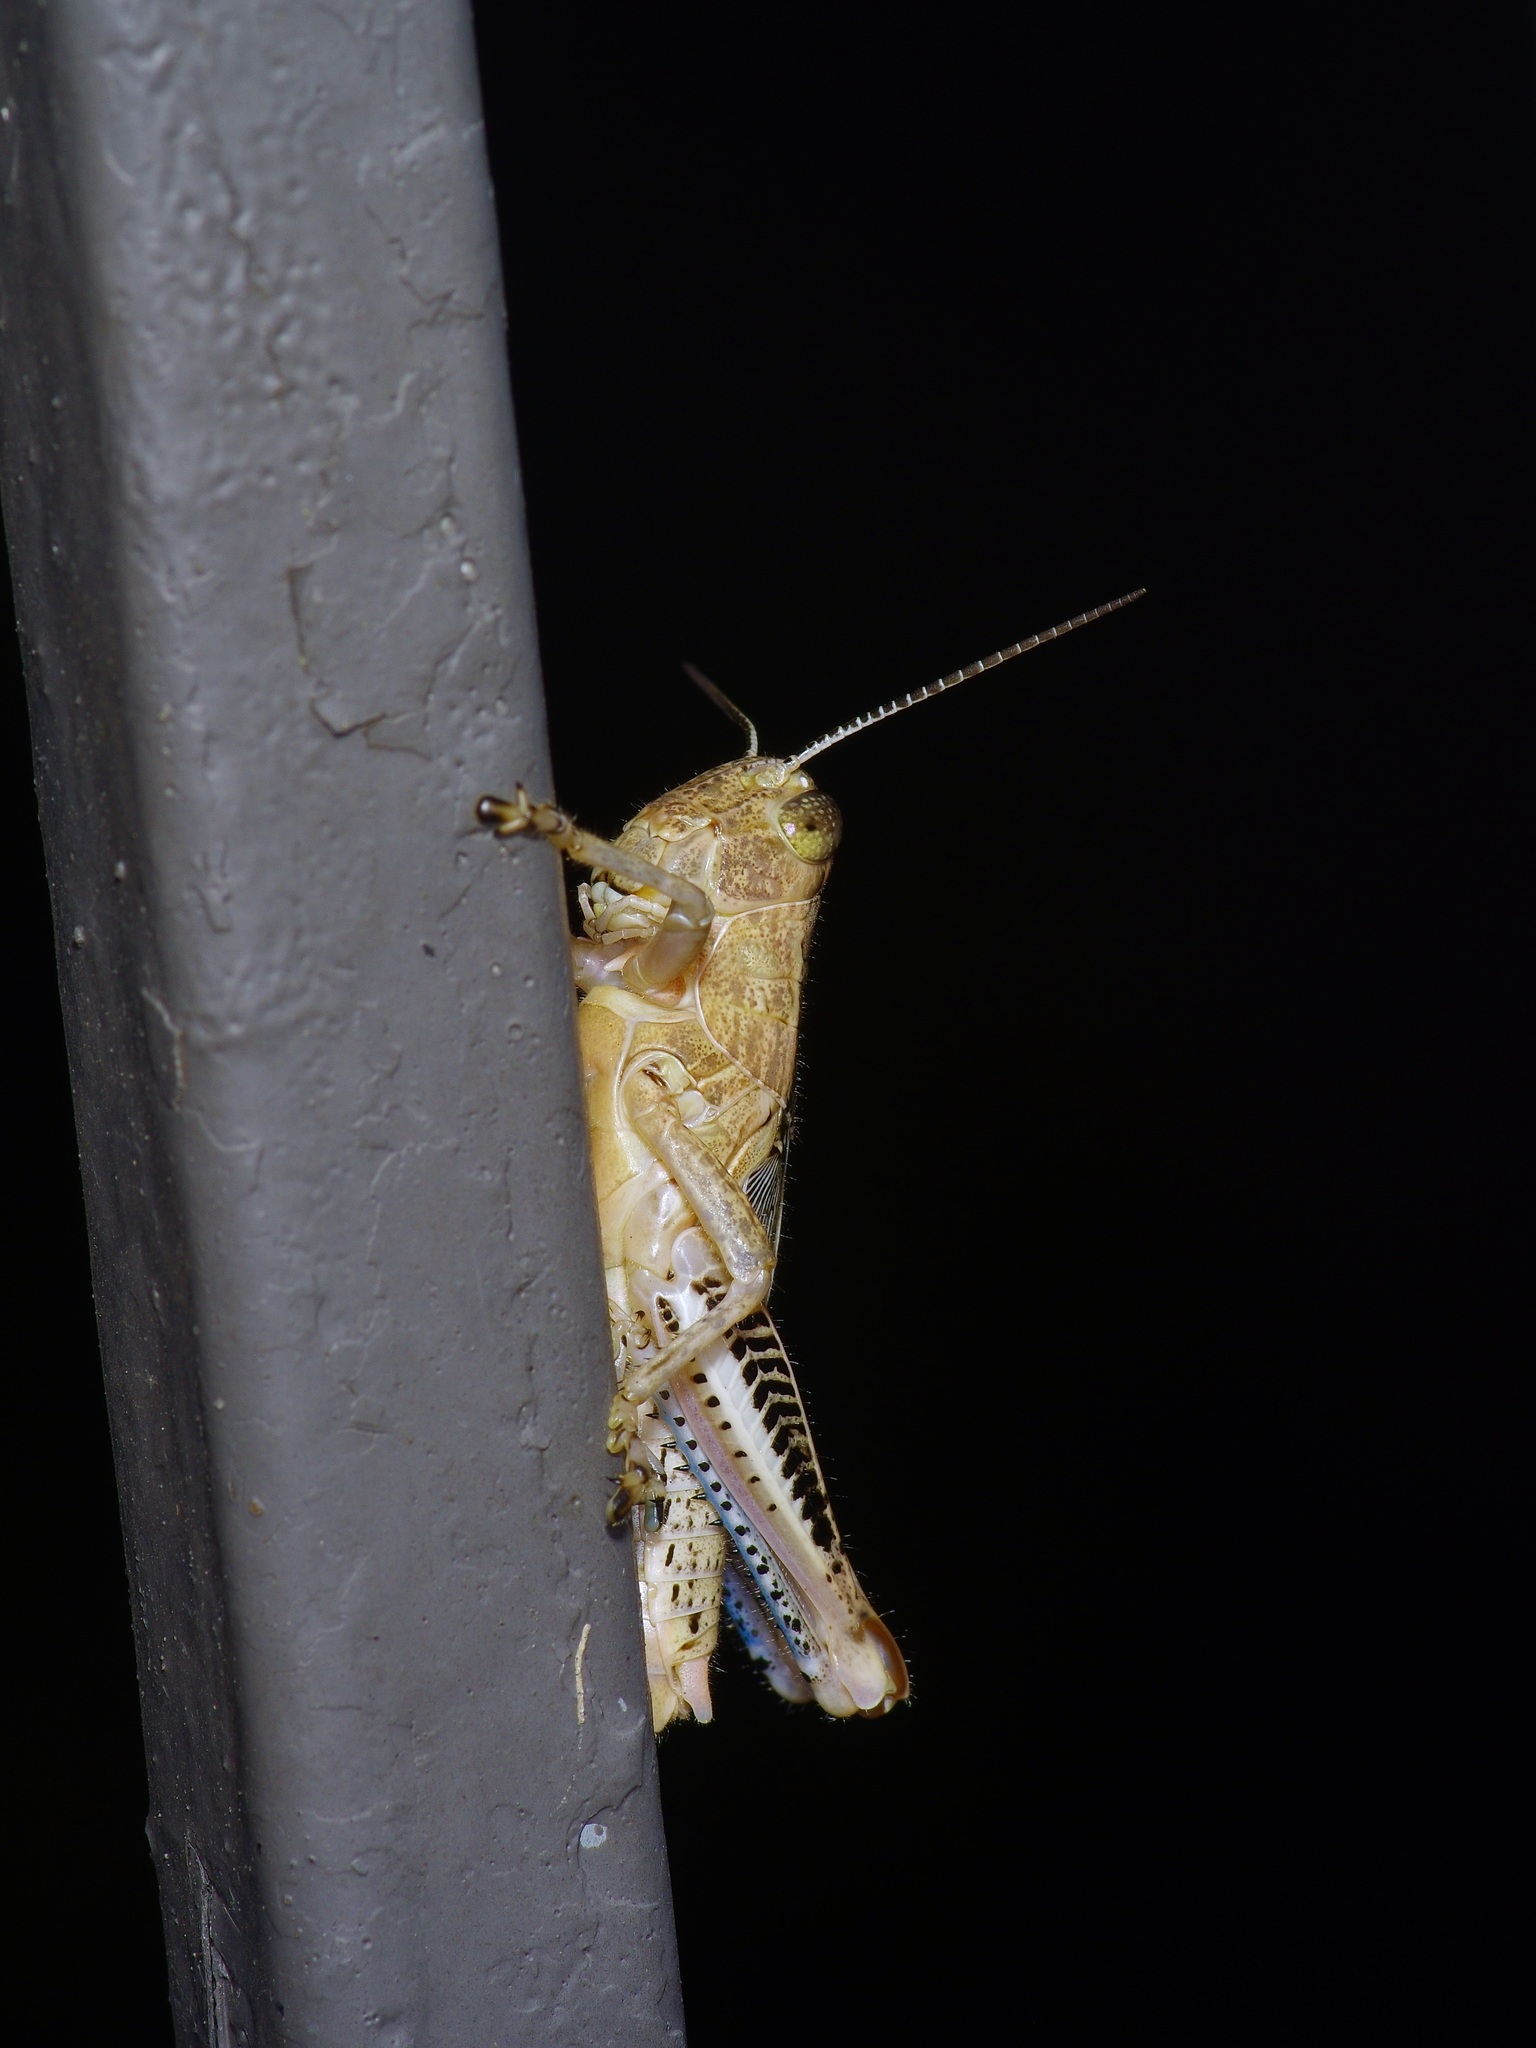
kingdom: Animalia
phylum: Arthropoda
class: Insecta
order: Orthoptera
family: Acrididae
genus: Melanoplus
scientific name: Melanoplus differentialis
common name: Differential grasshopper
